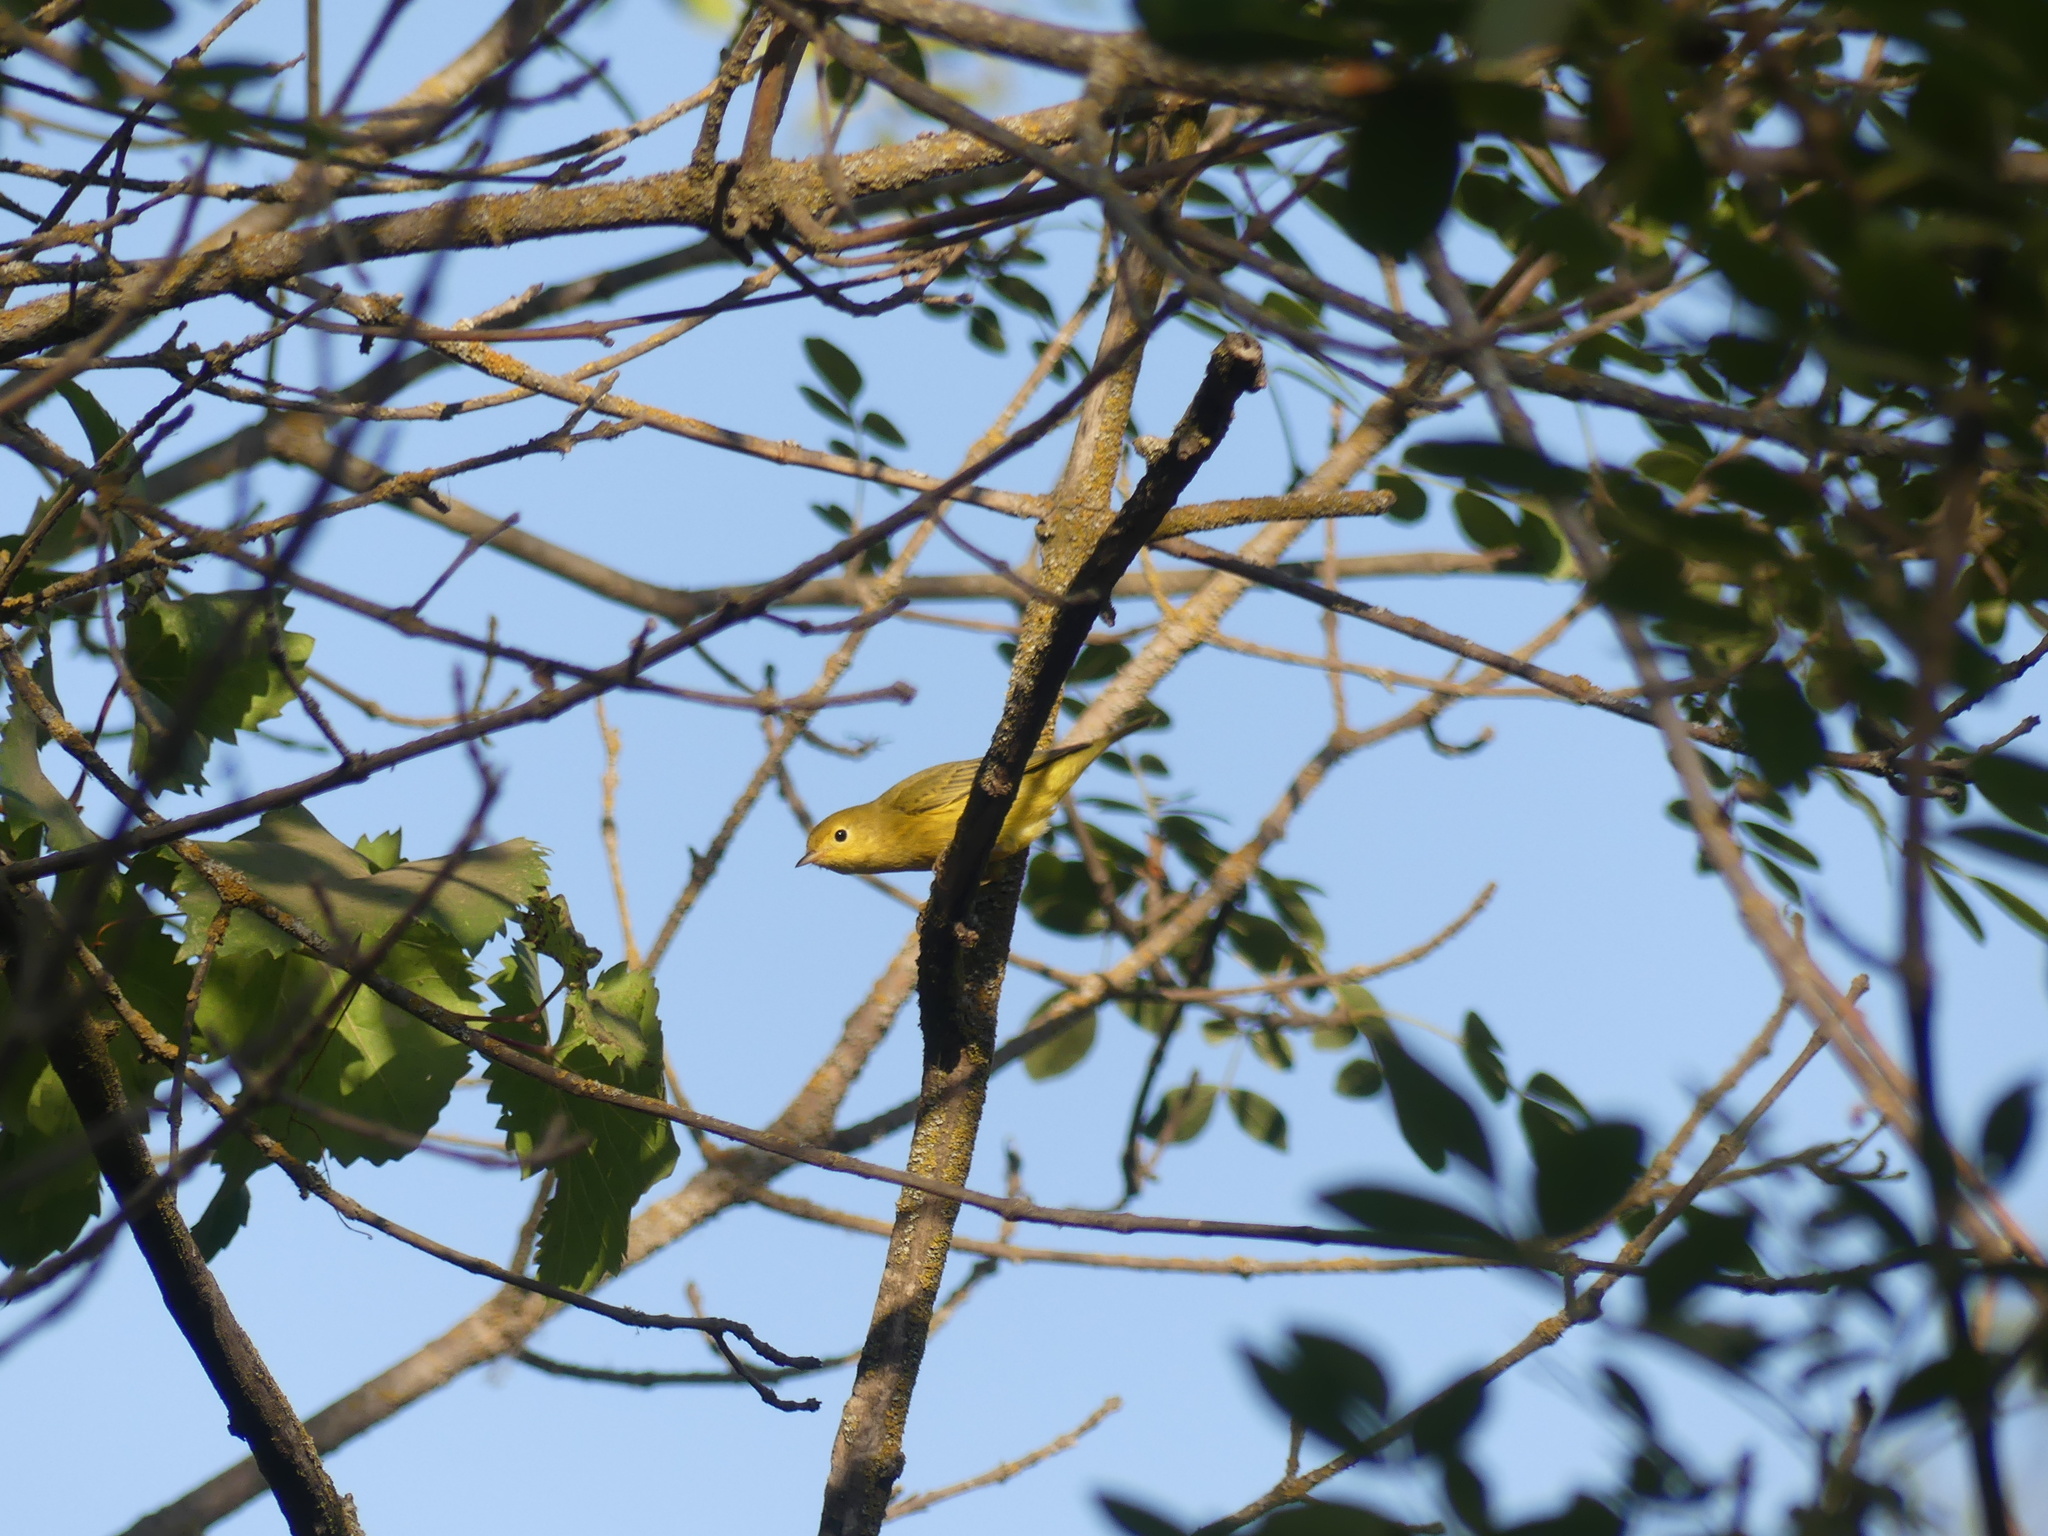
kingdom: Animalia
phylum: Chordata
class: Aves
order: Passeriformes
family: Parulidae
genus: Setophaga
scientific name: Setophaga petechia
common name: Yellow warbler
